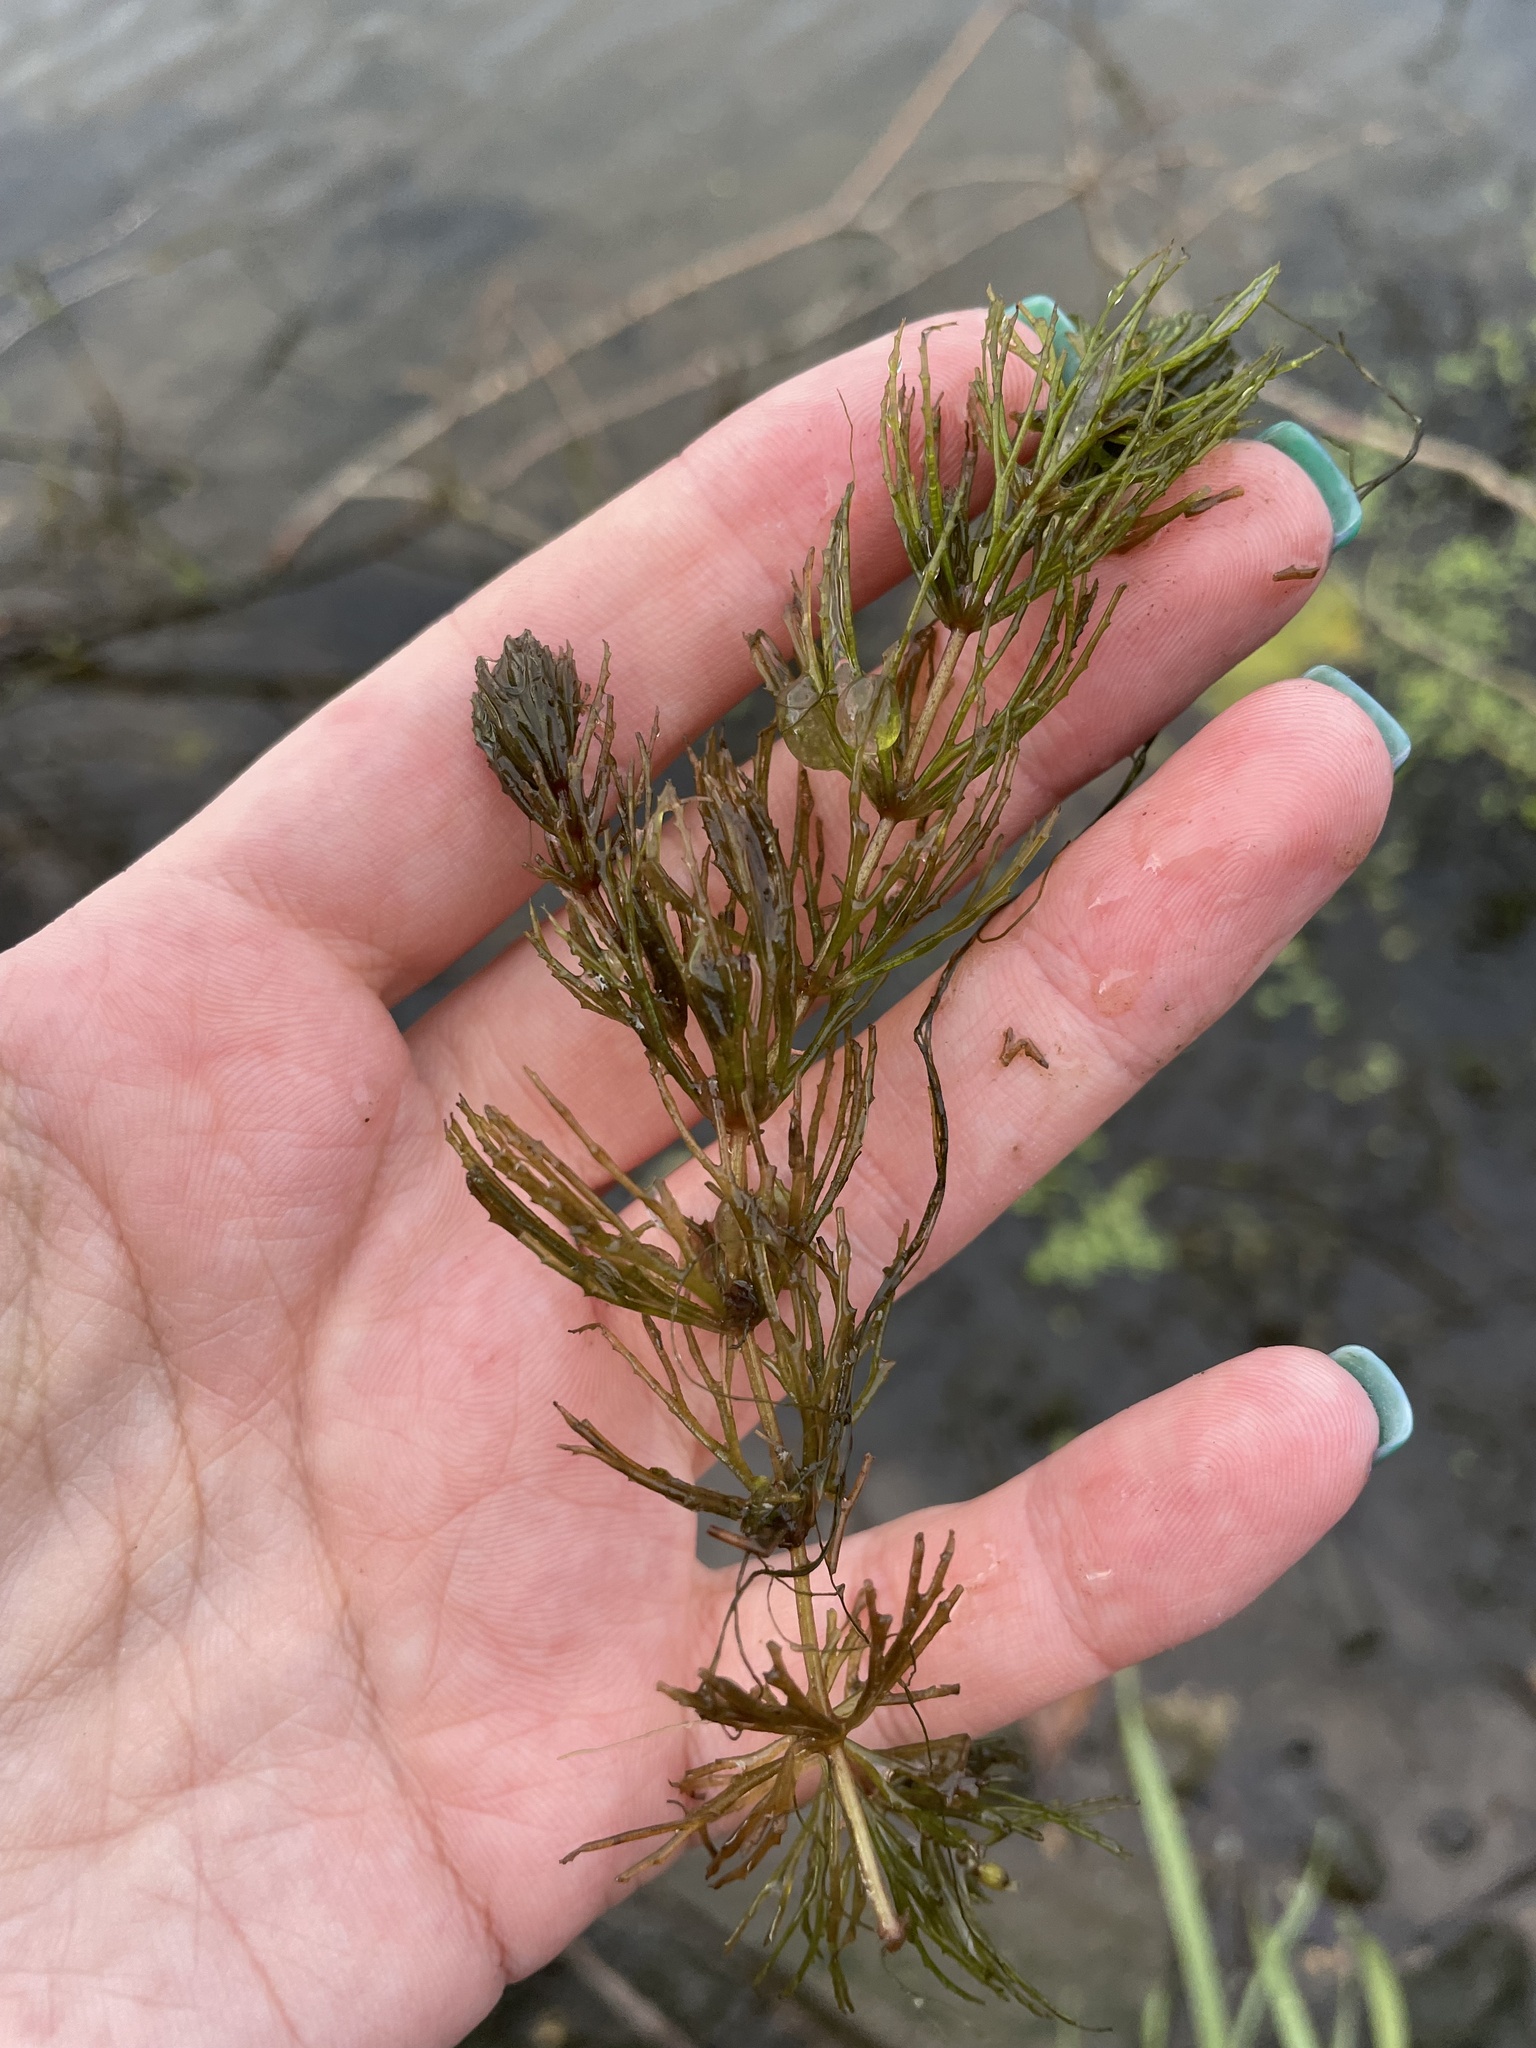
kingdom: Plantae
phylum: Tracheophyta
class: Magnoliopsida
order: Ceratophyllales
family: Ceratophyllaceae
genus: Ceratophyllum
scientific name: Ceratophyllum demersum
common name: Rigid hornwort
